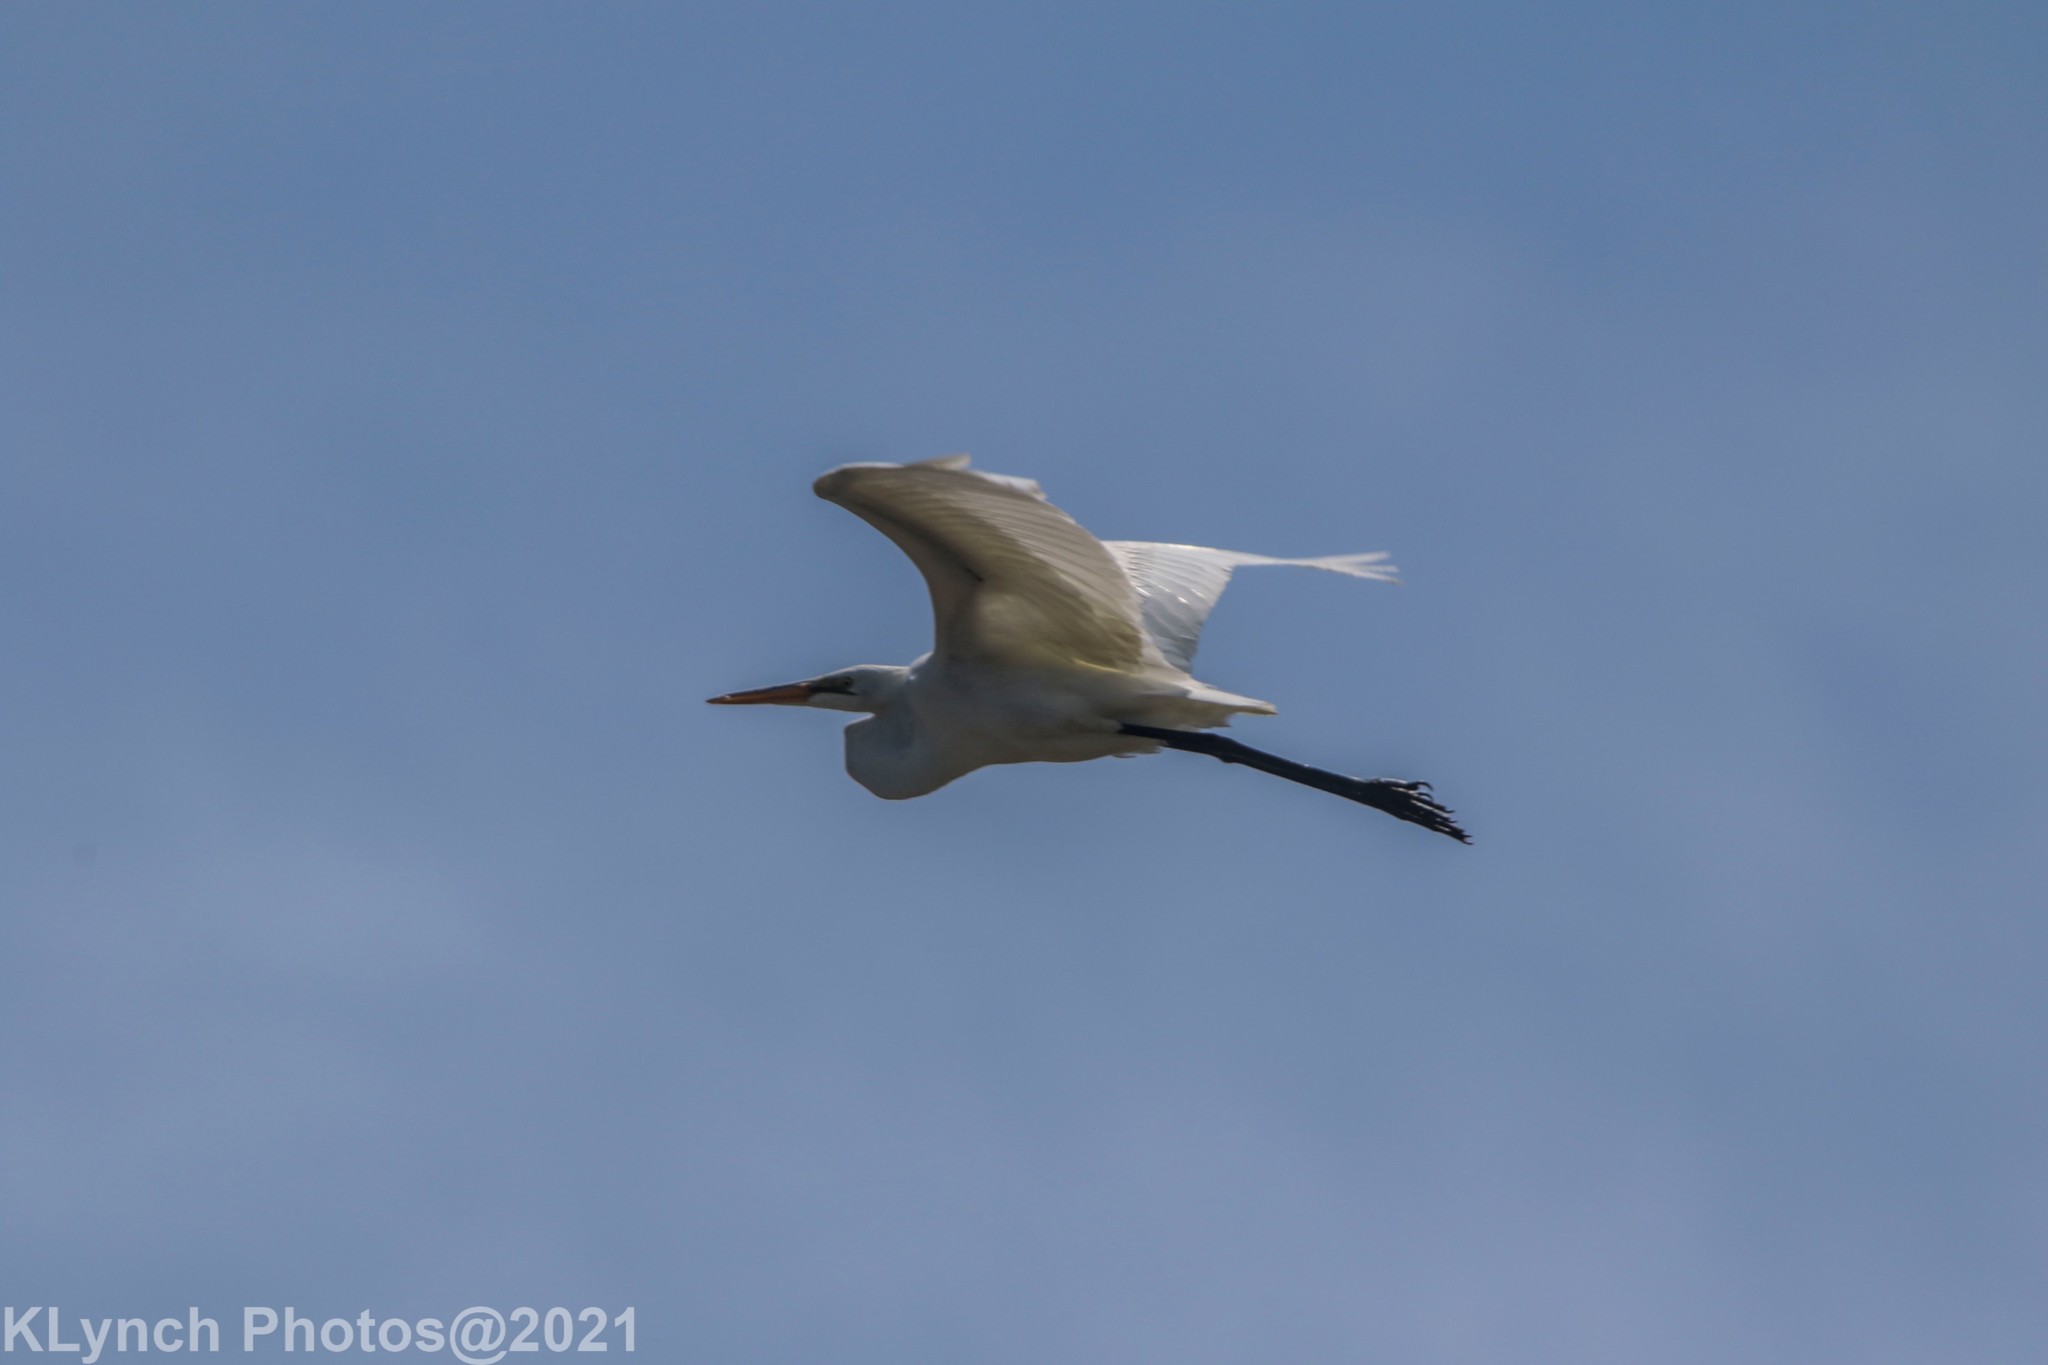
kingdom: Animalia
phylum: Chordata
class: Aves
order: Pelecaniformes
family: Ardeidae
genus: Ardea
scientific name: Ardea alba
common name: Great egret
